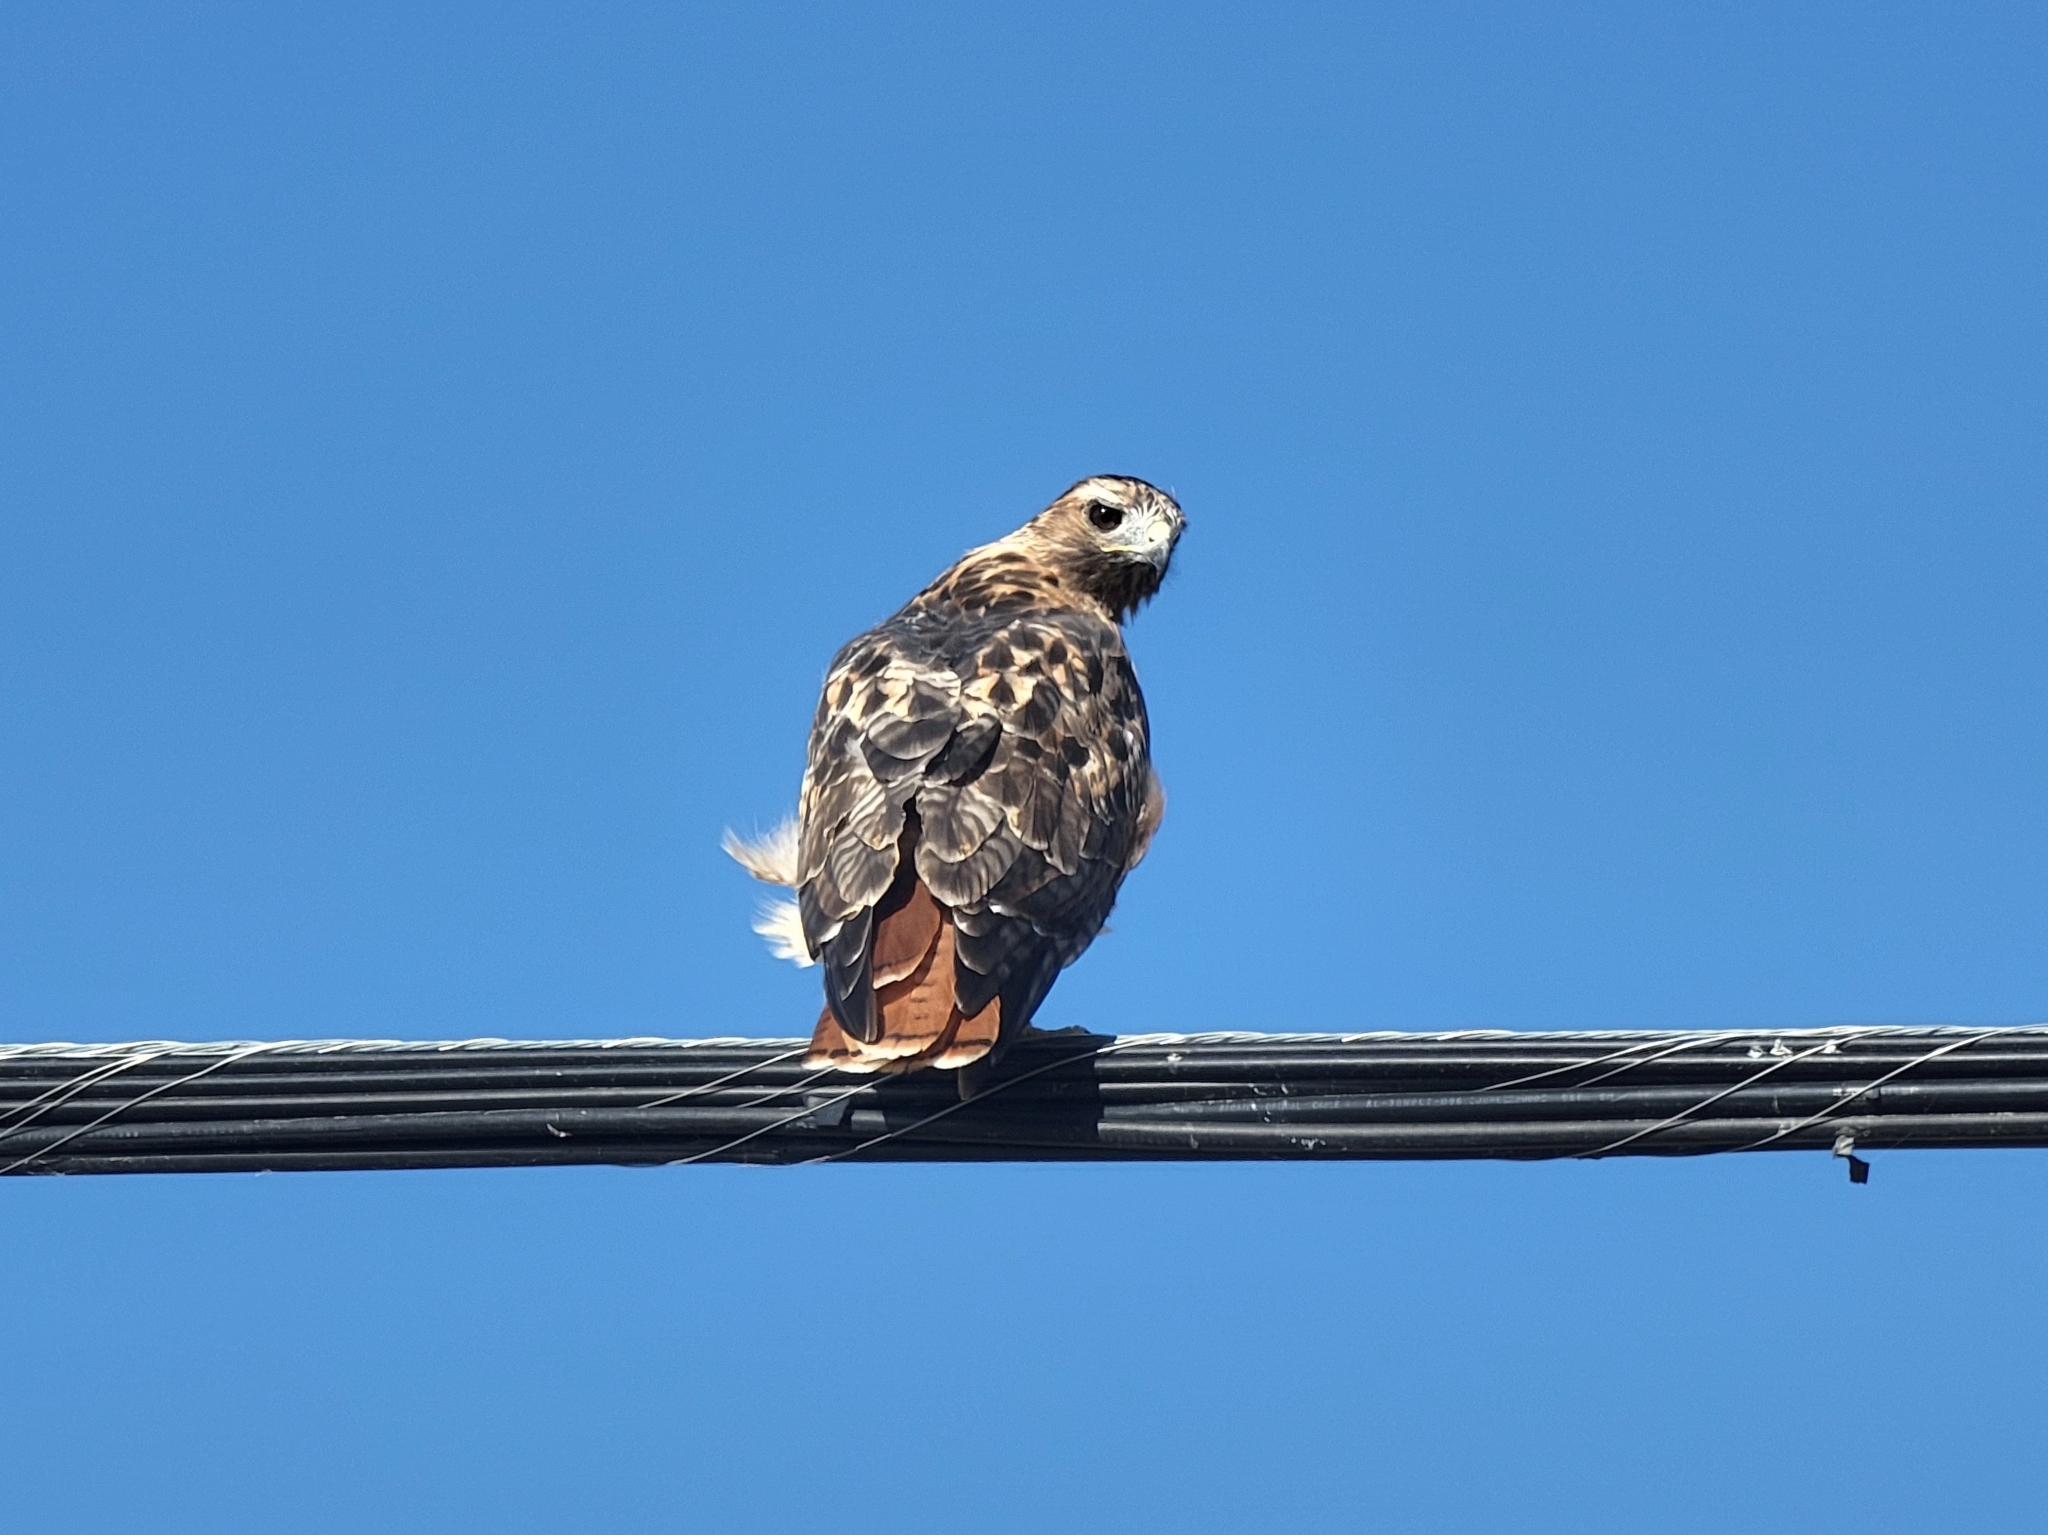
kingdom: Animalia
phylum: Chordata
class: Aves
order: Accipitriformes
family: Accipitridae
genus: Buteo
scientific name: Buteo jamaicensis
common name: Red-tailed hawk
